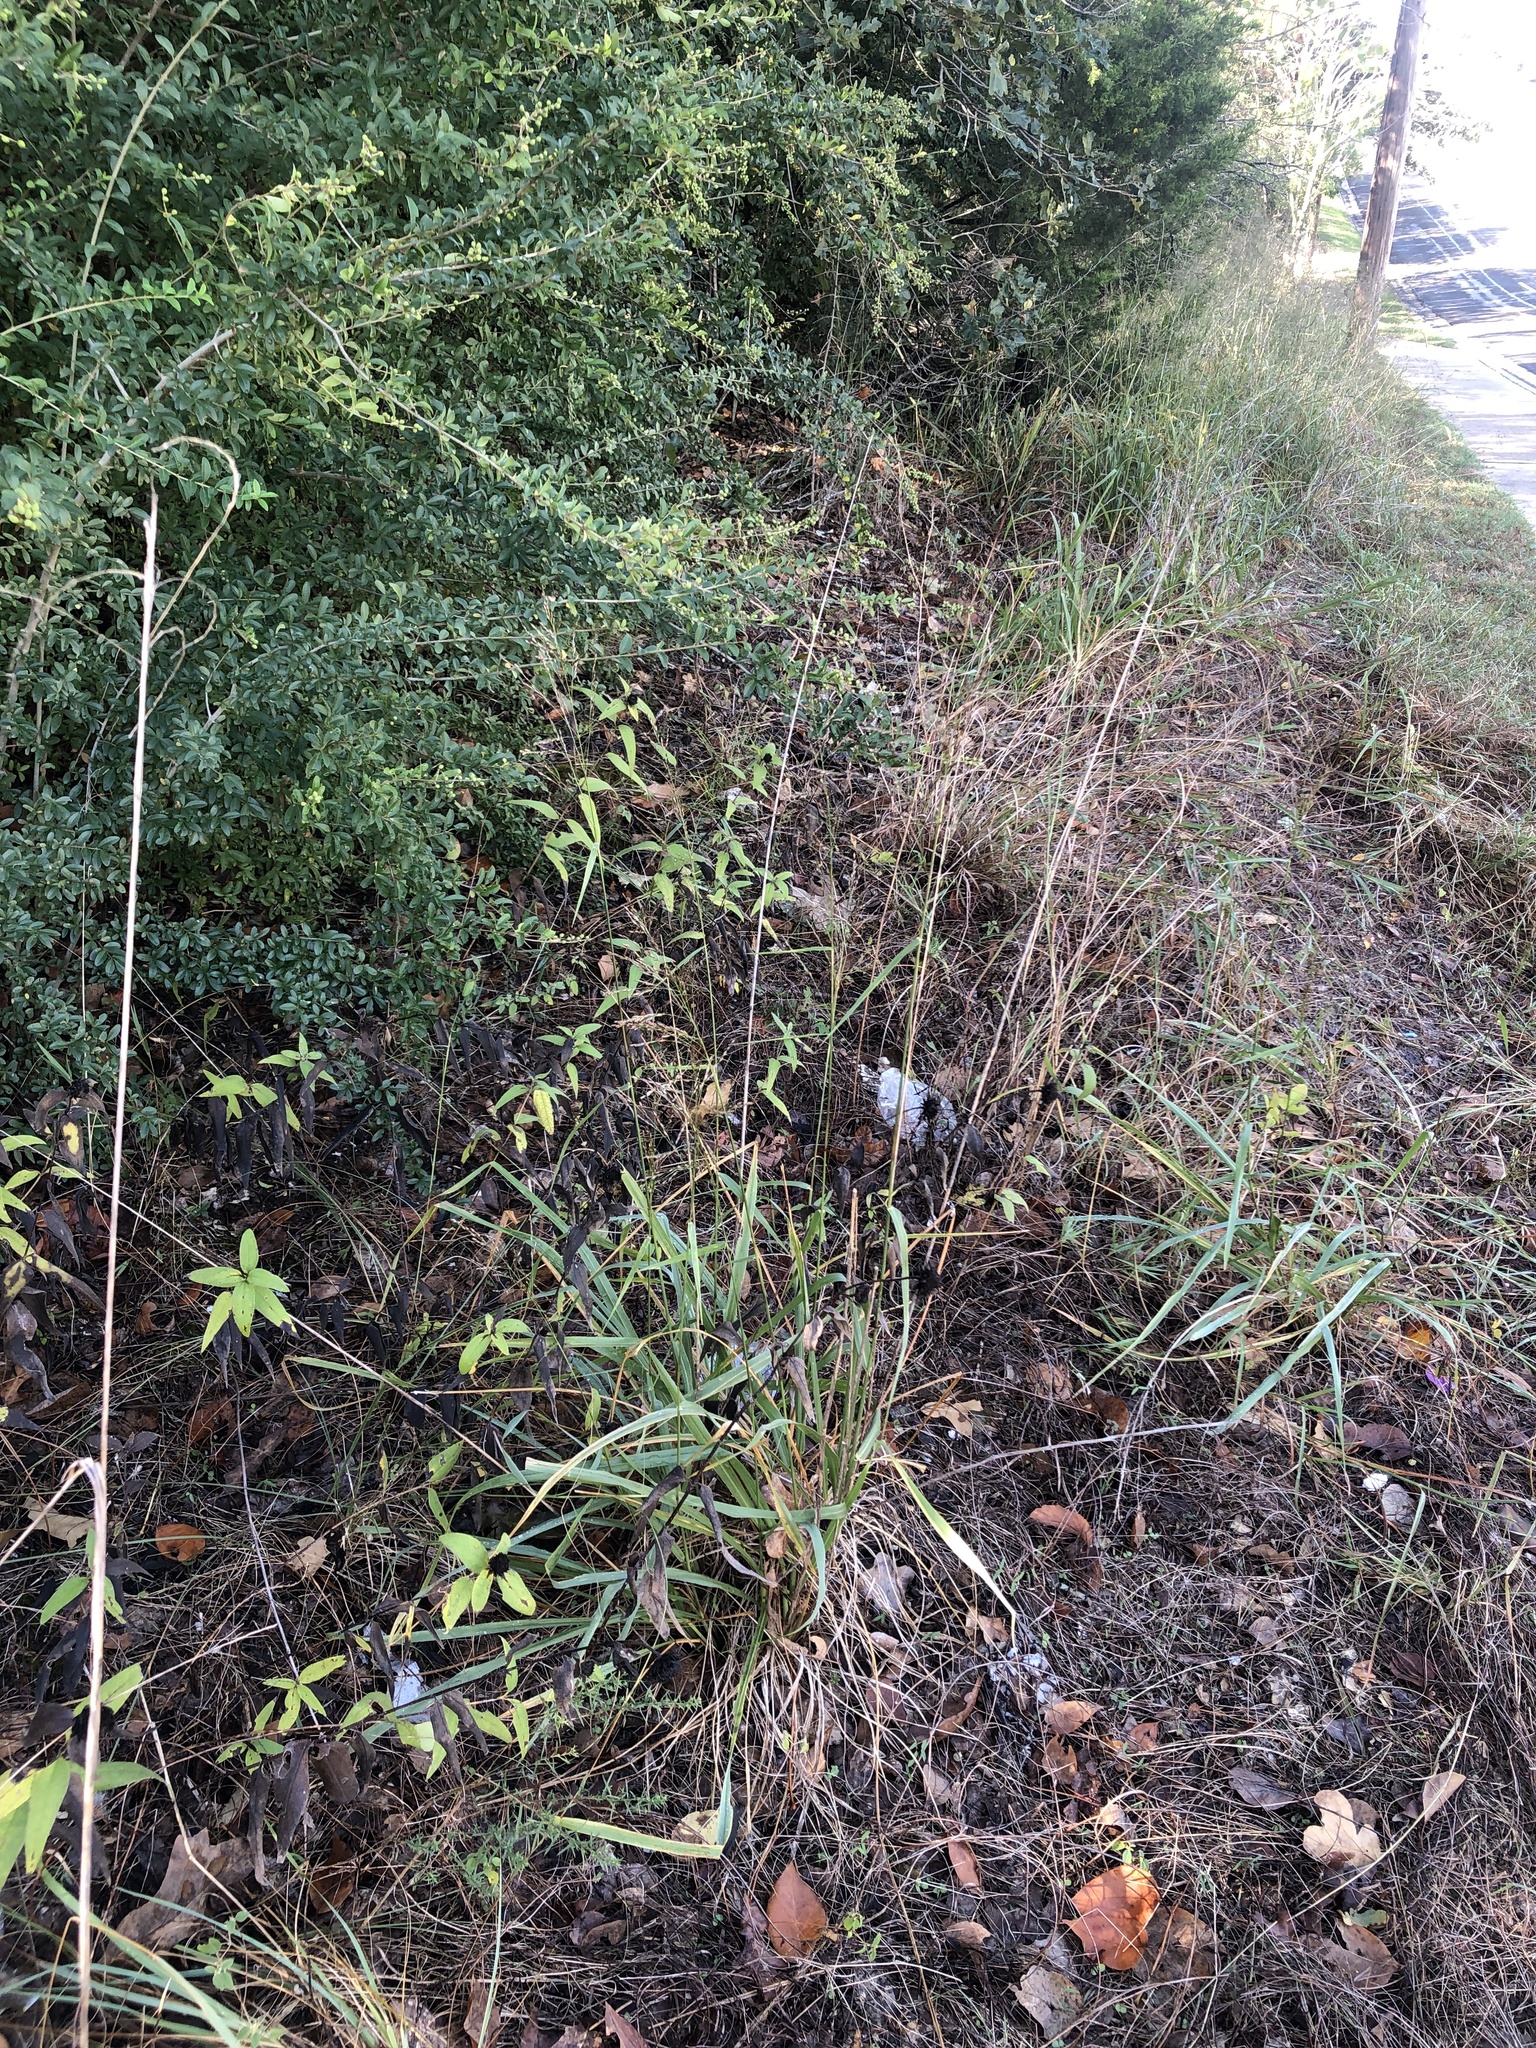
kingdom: Plantae
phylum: Tracheophyta
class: Liliopsida
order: Poales
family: Poaceae
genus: Tridens
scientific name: Tridens flavus
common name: Purpletop
